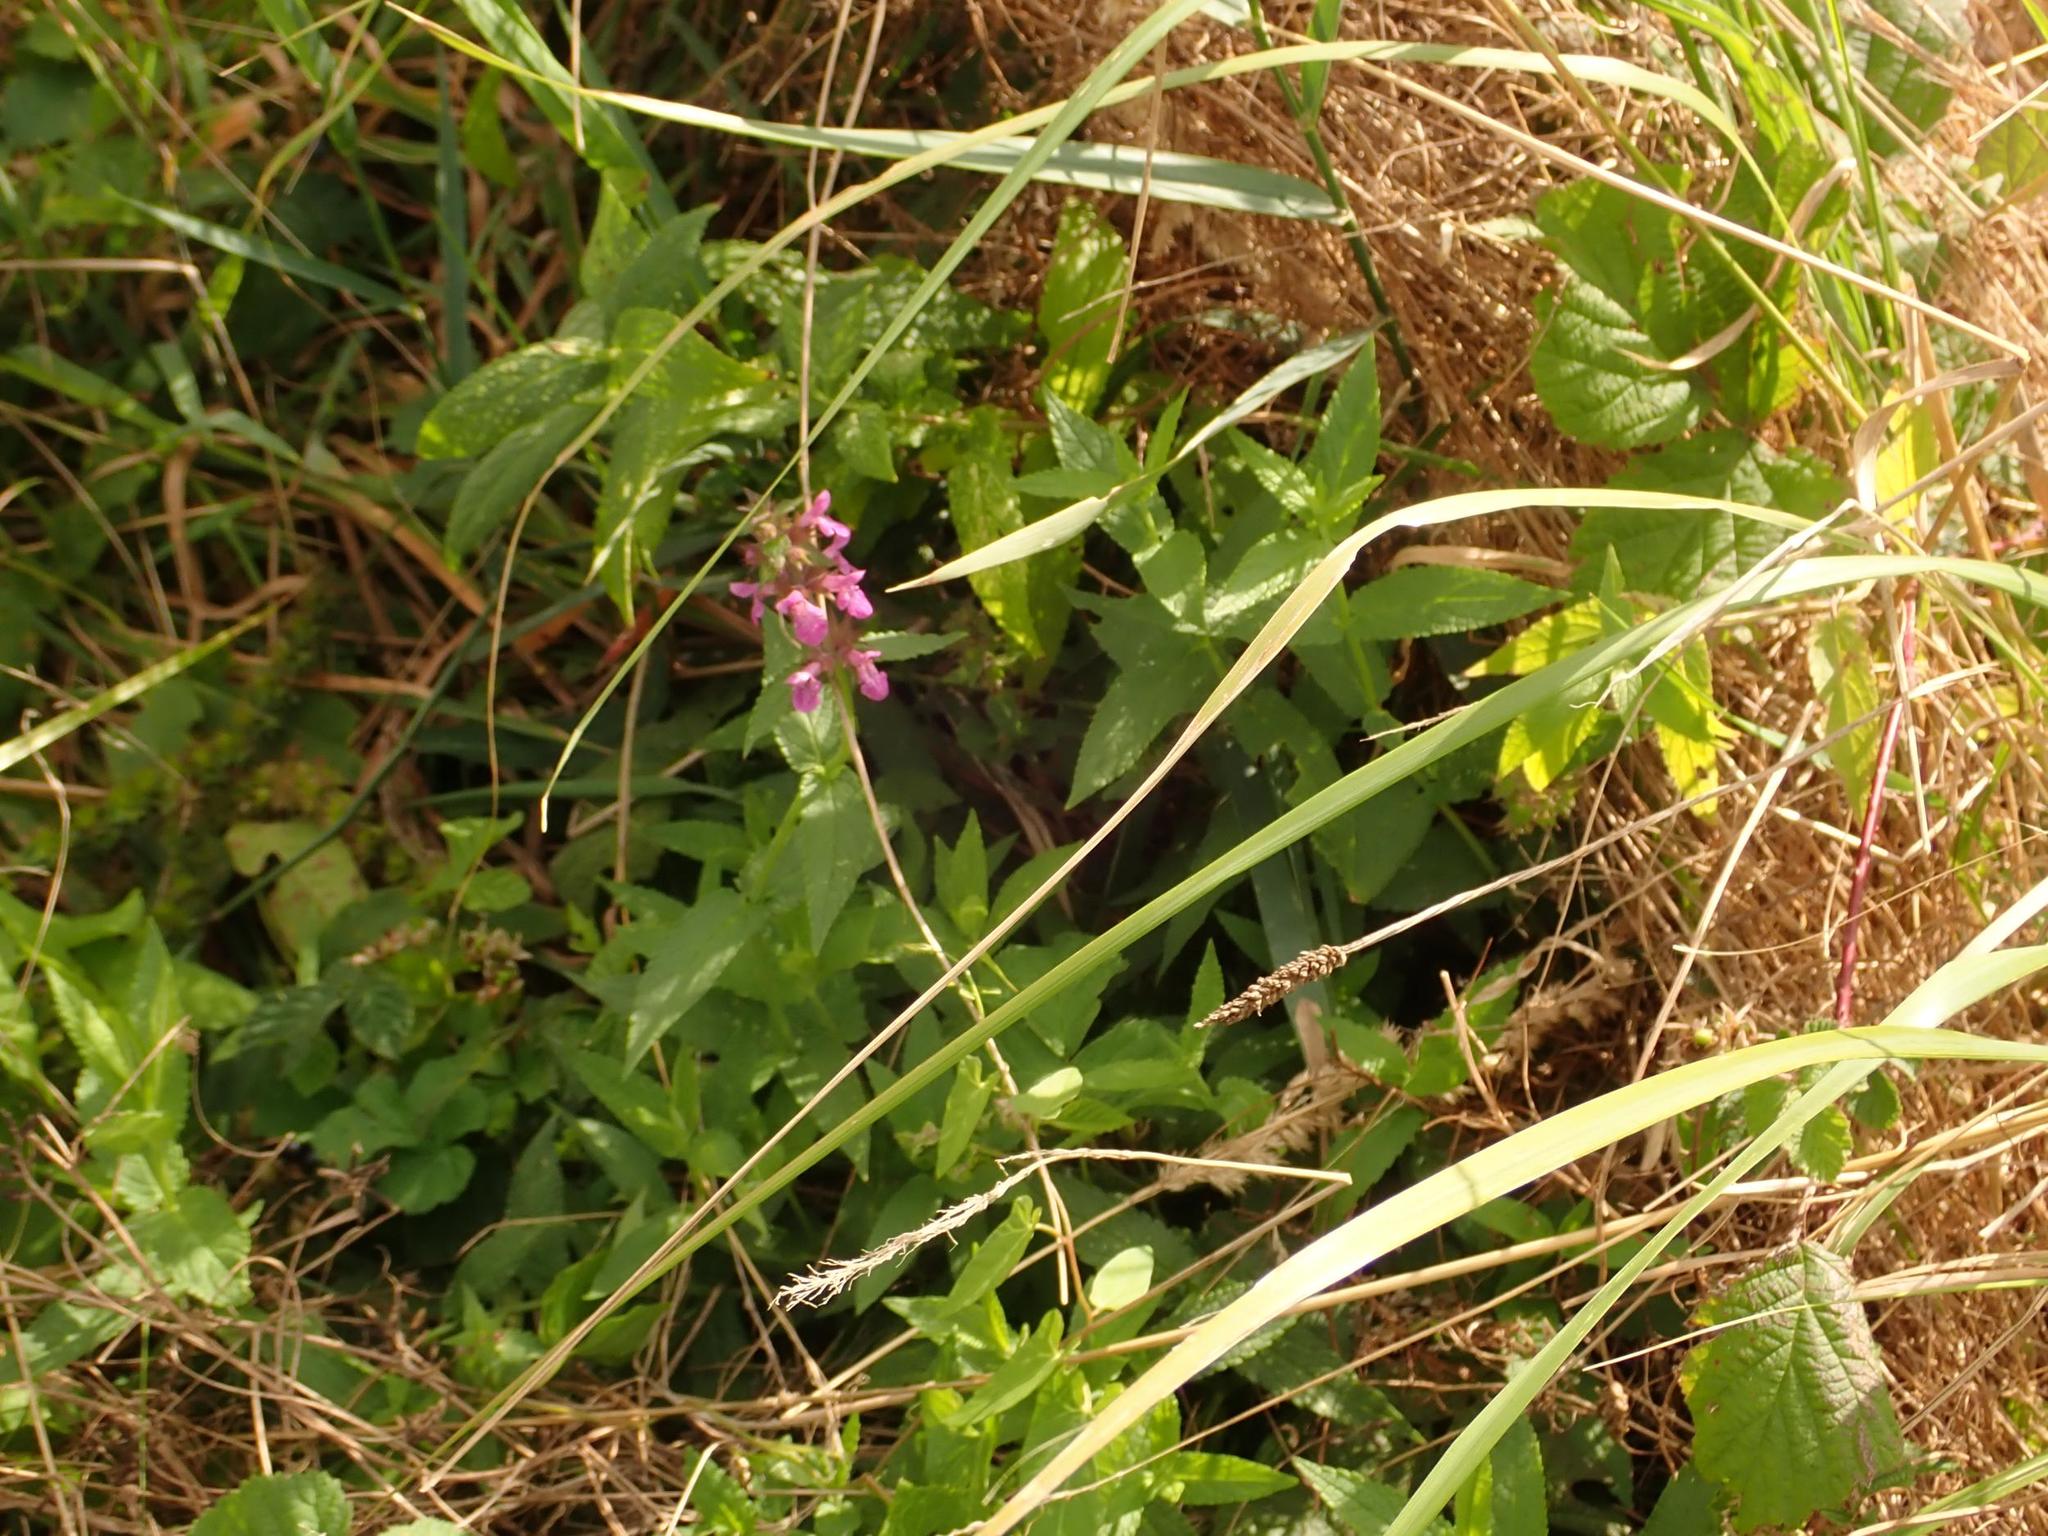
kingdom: Plantae
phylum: Tracheophyta
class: Magnoliopsida
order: Lamiales
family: Lamiaceae
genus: Stachys
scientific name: Stachys palustris
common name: Marsh woundwort
